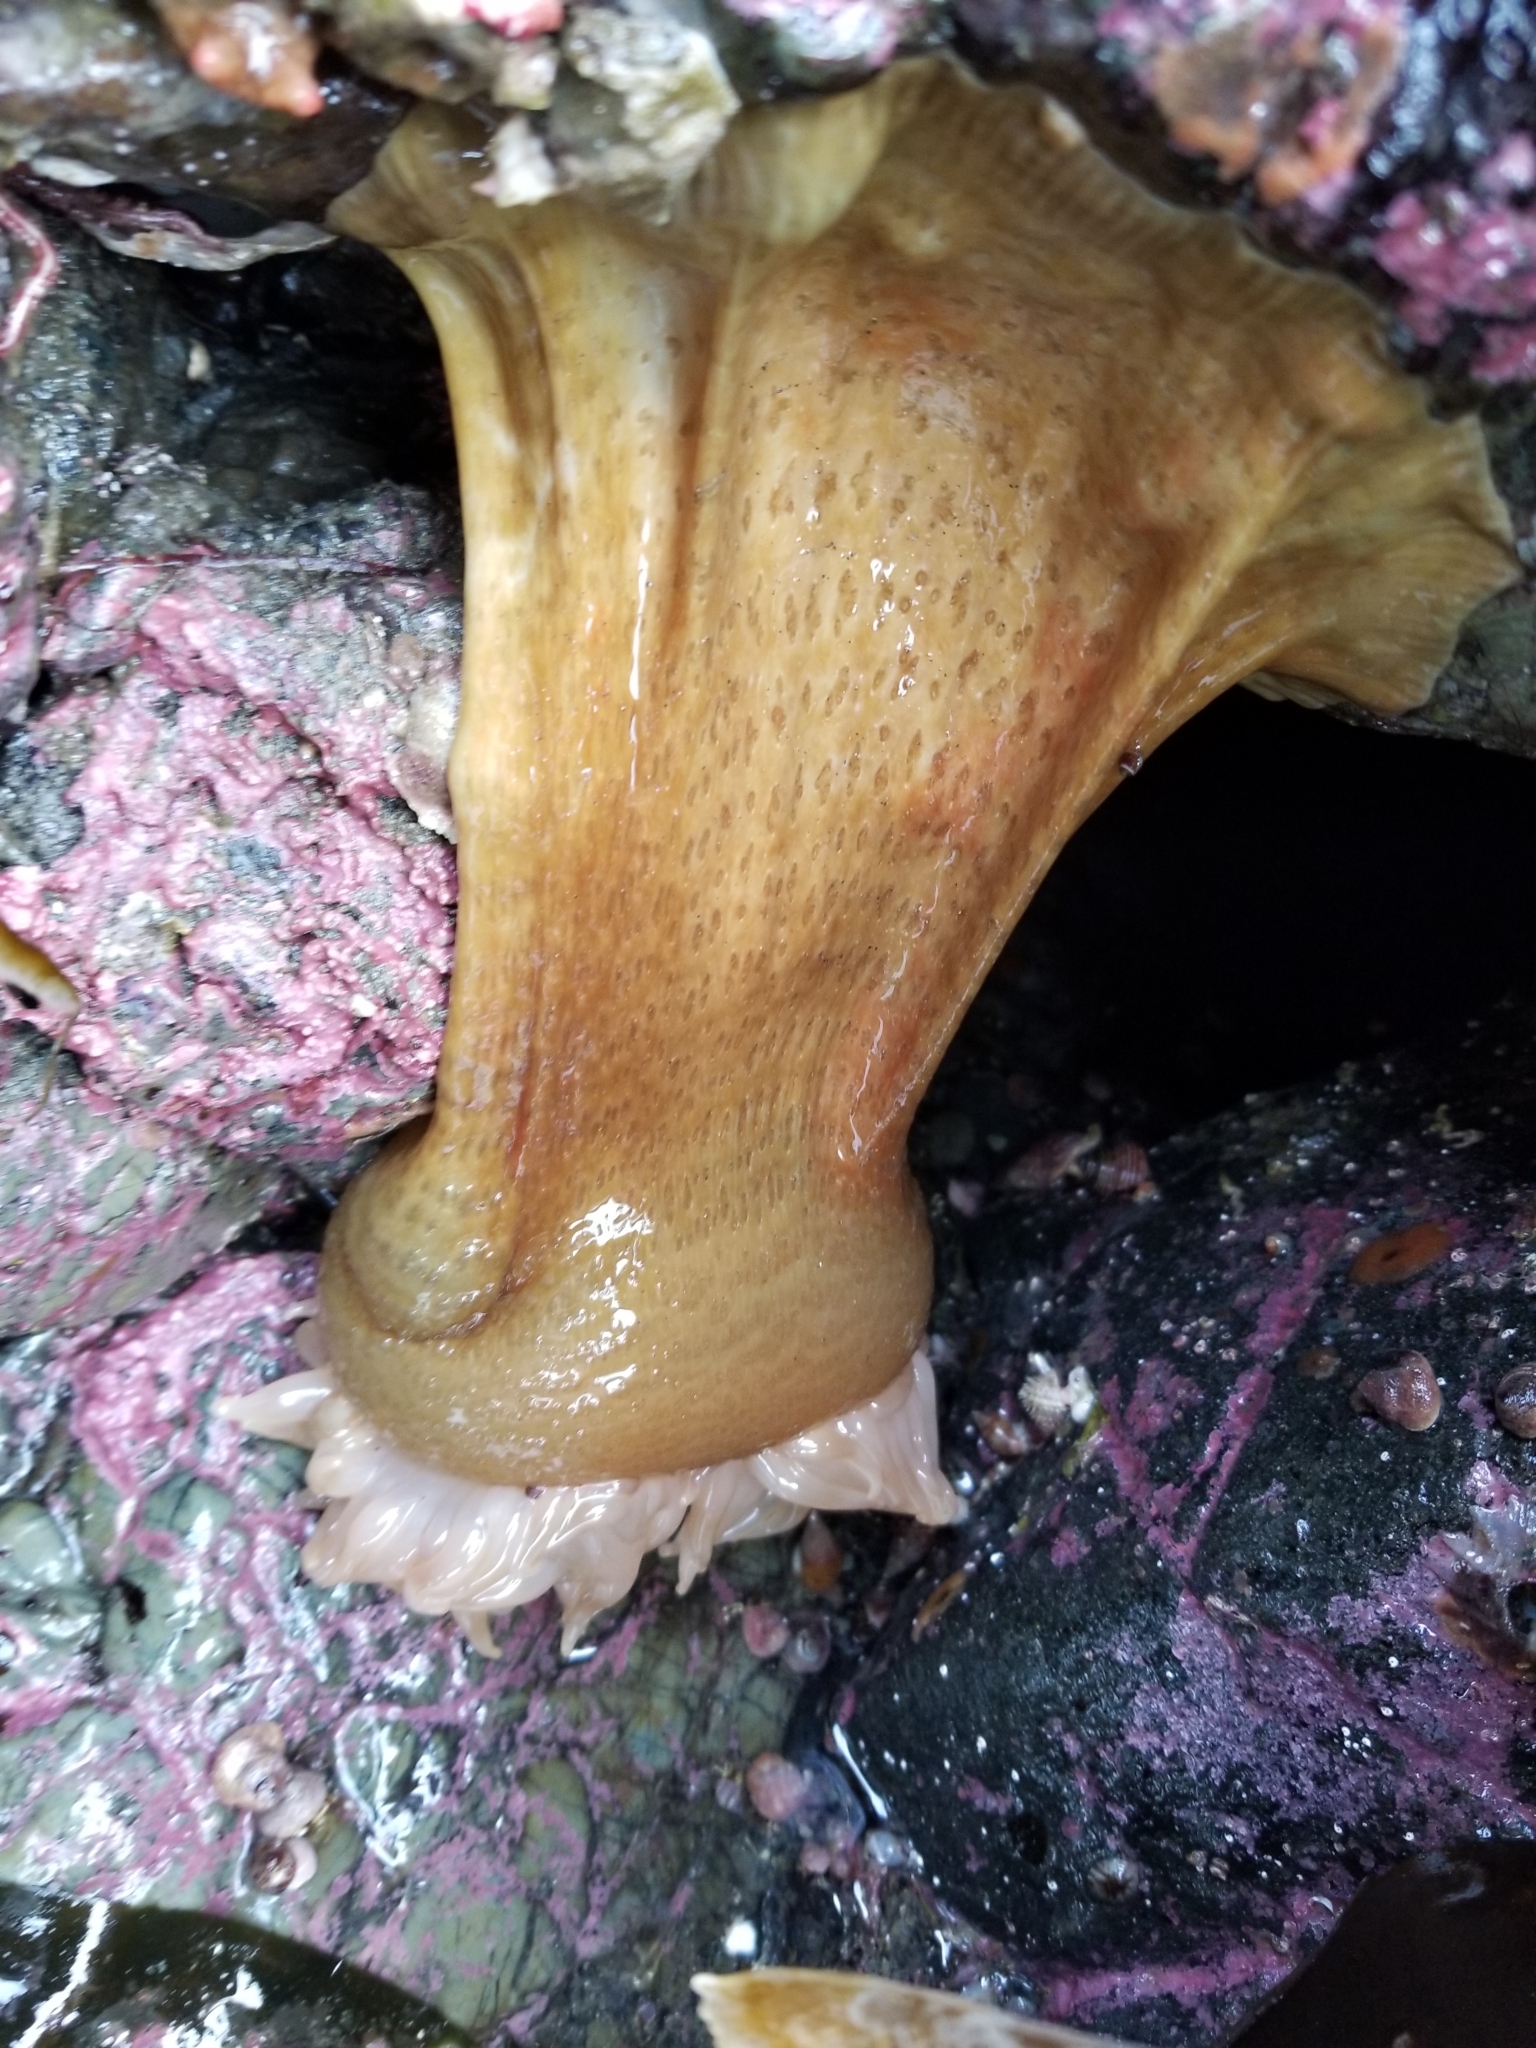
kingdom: Animalia
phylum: Cnidaria
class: Anthozoa
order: Actiniaria
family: Actiniidae
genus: Urticina
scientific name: Urticina grebelnyi
